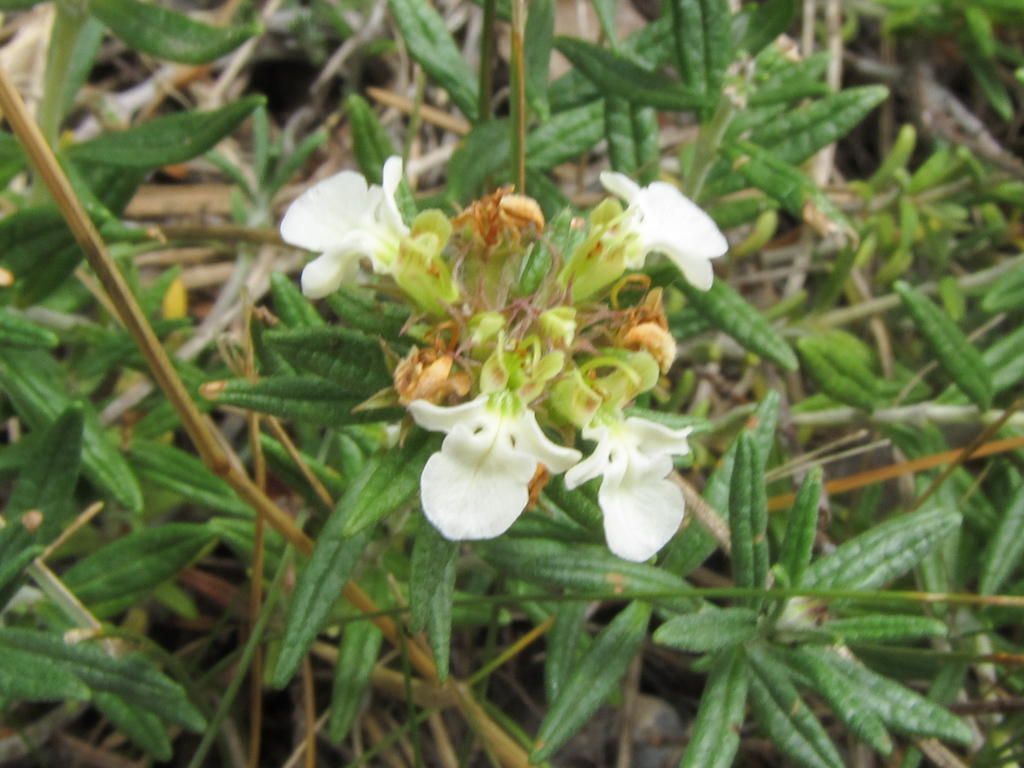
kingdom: Plantae
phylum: Tracheophyta
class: Magnoliopsida
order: Lamiales
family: Lamiaceae
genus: Teucrium
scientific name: Teucrium montanum
